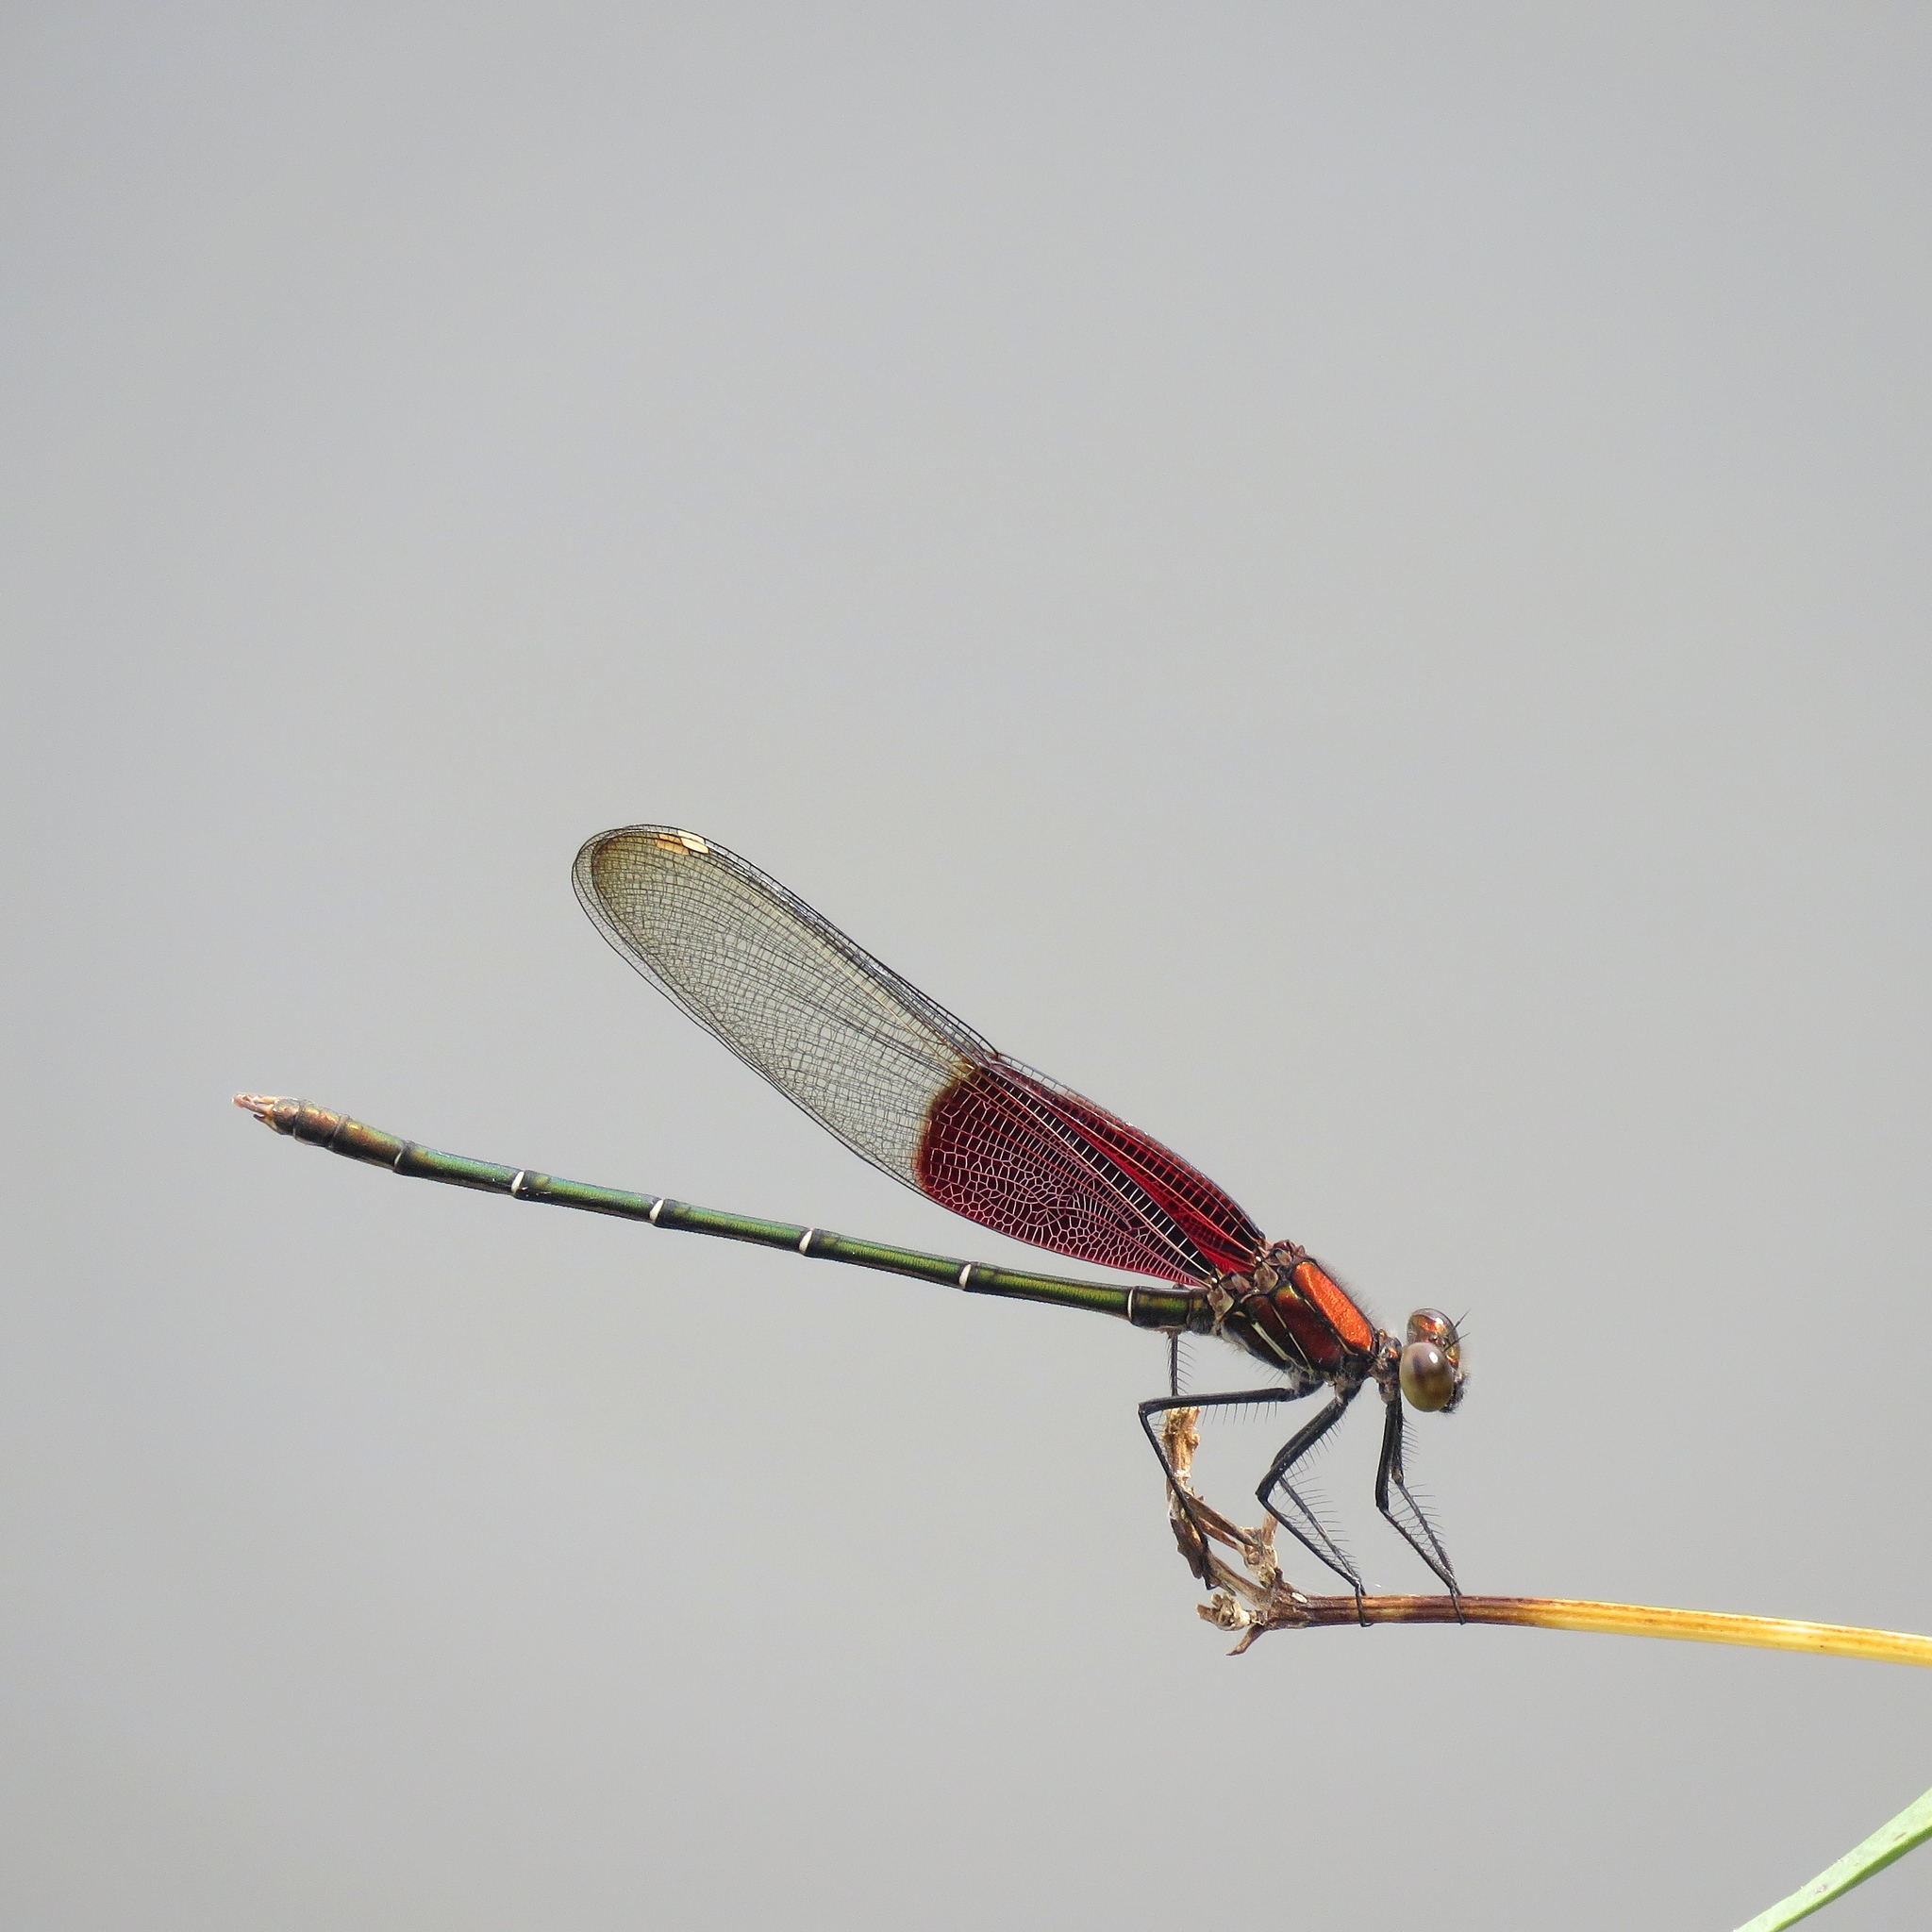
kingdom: Animalia
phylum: Arthropoda
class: Insecta
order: Odonata
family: Calopterygidae
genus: Hetaerina
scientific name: Hetaerina americana
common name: American rubyspot
